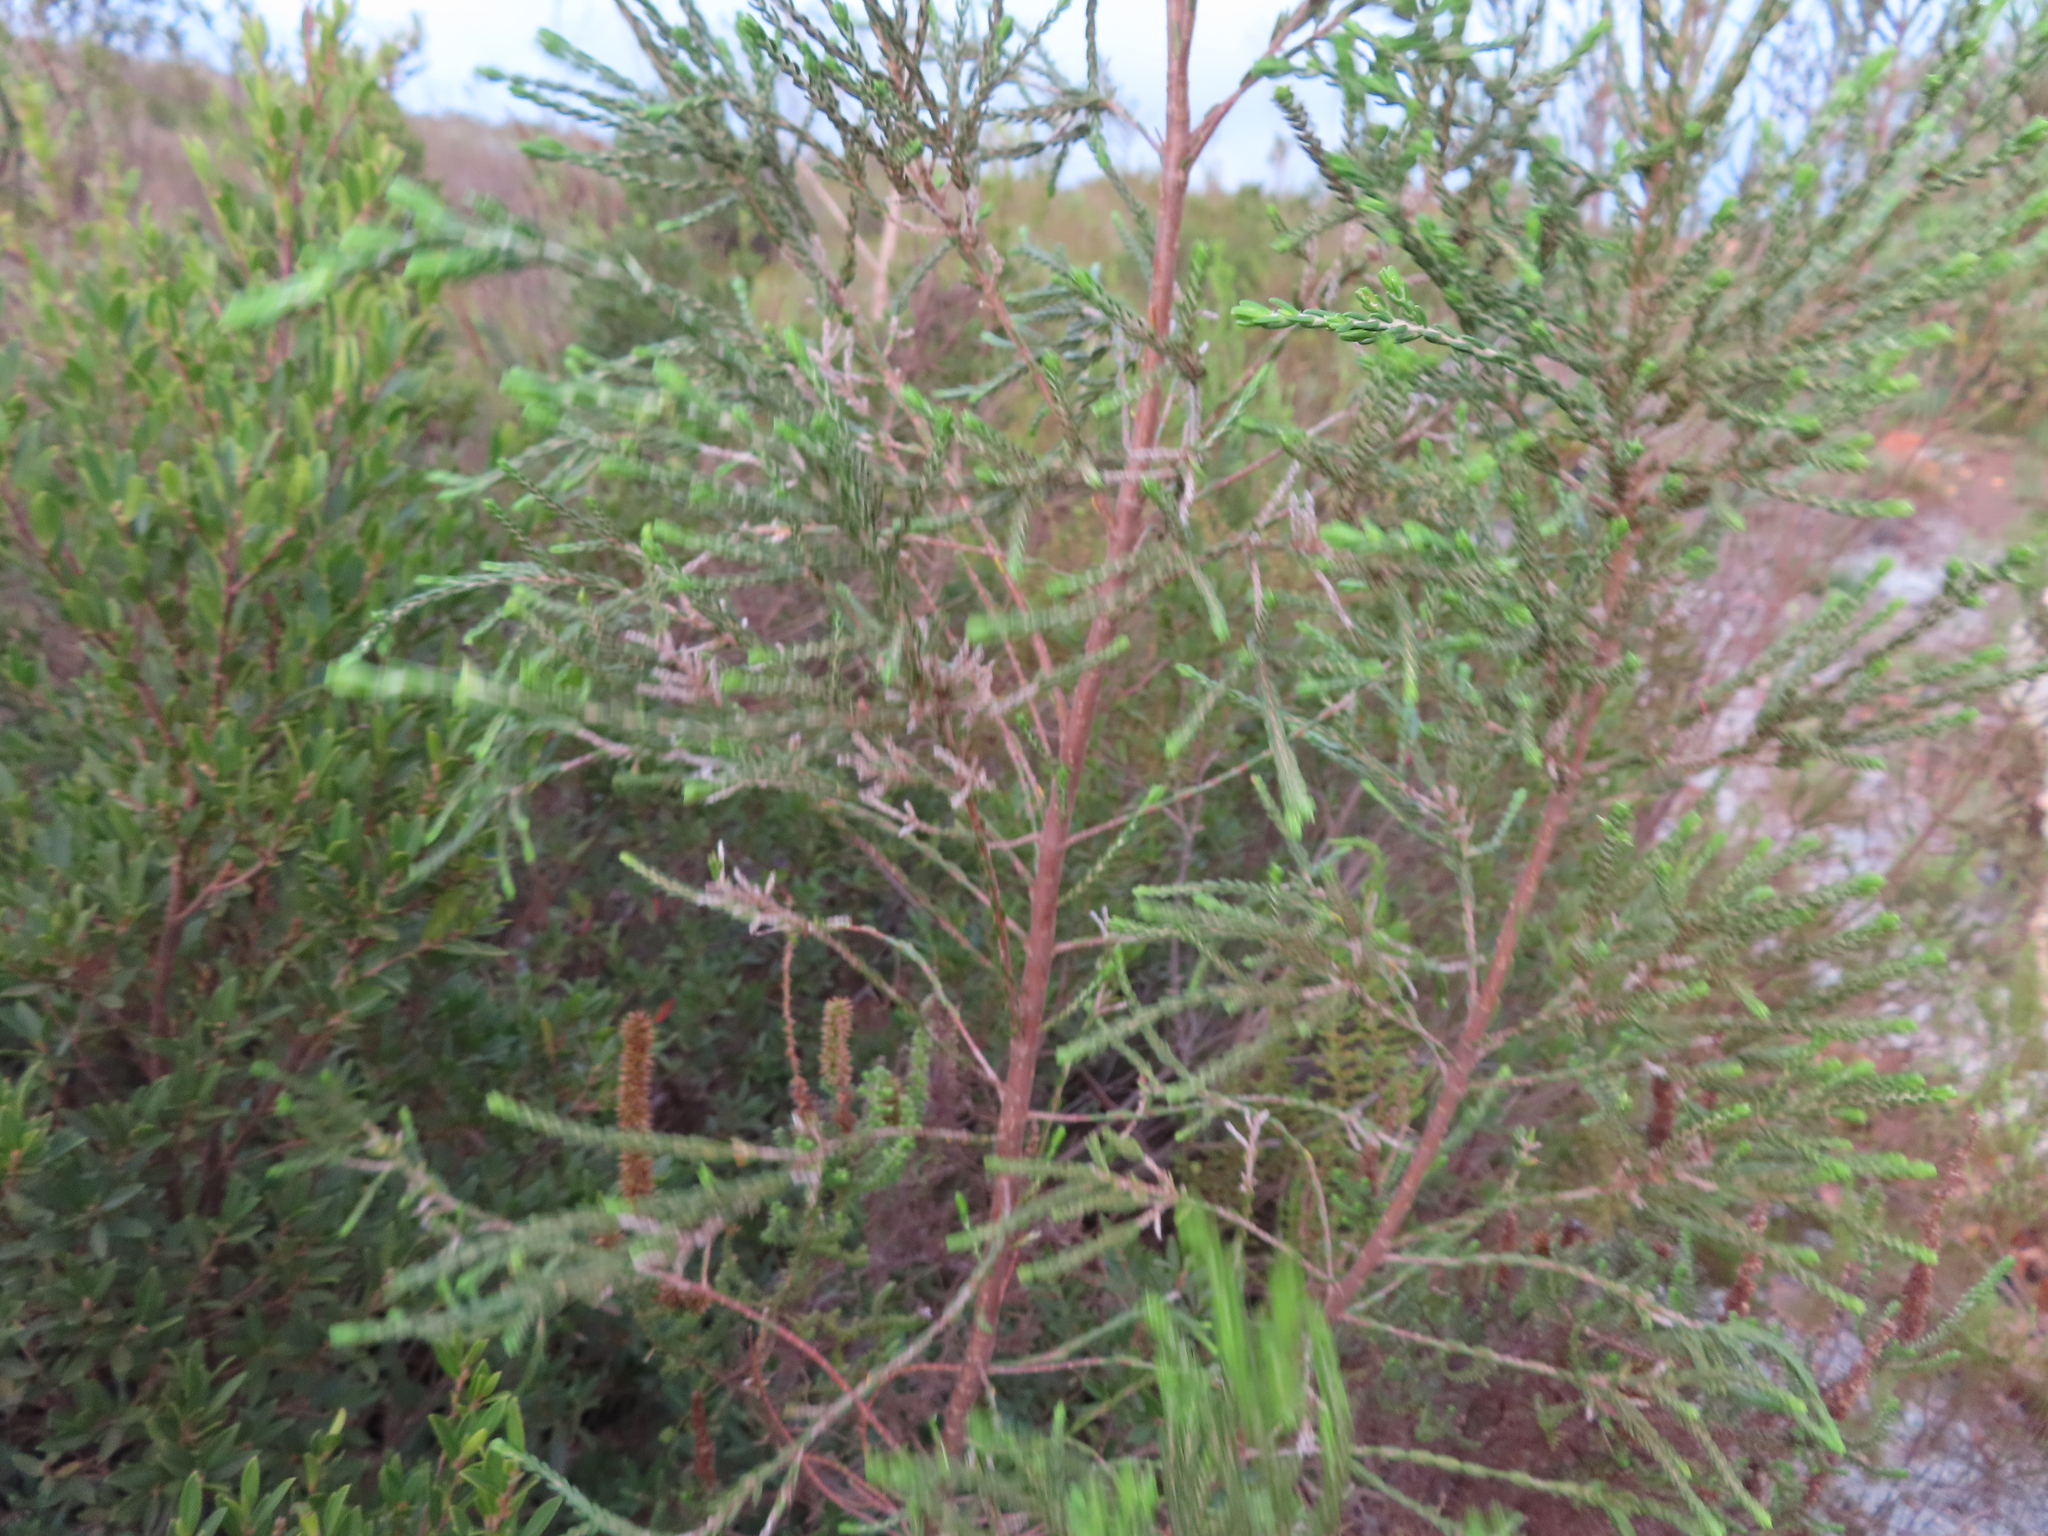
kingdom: Plantae
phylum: Tracheophyta
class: Magnoliopsida
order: Malvales
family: Thymelaeaceae
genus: Passerina
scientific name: Passerina corymbosa
